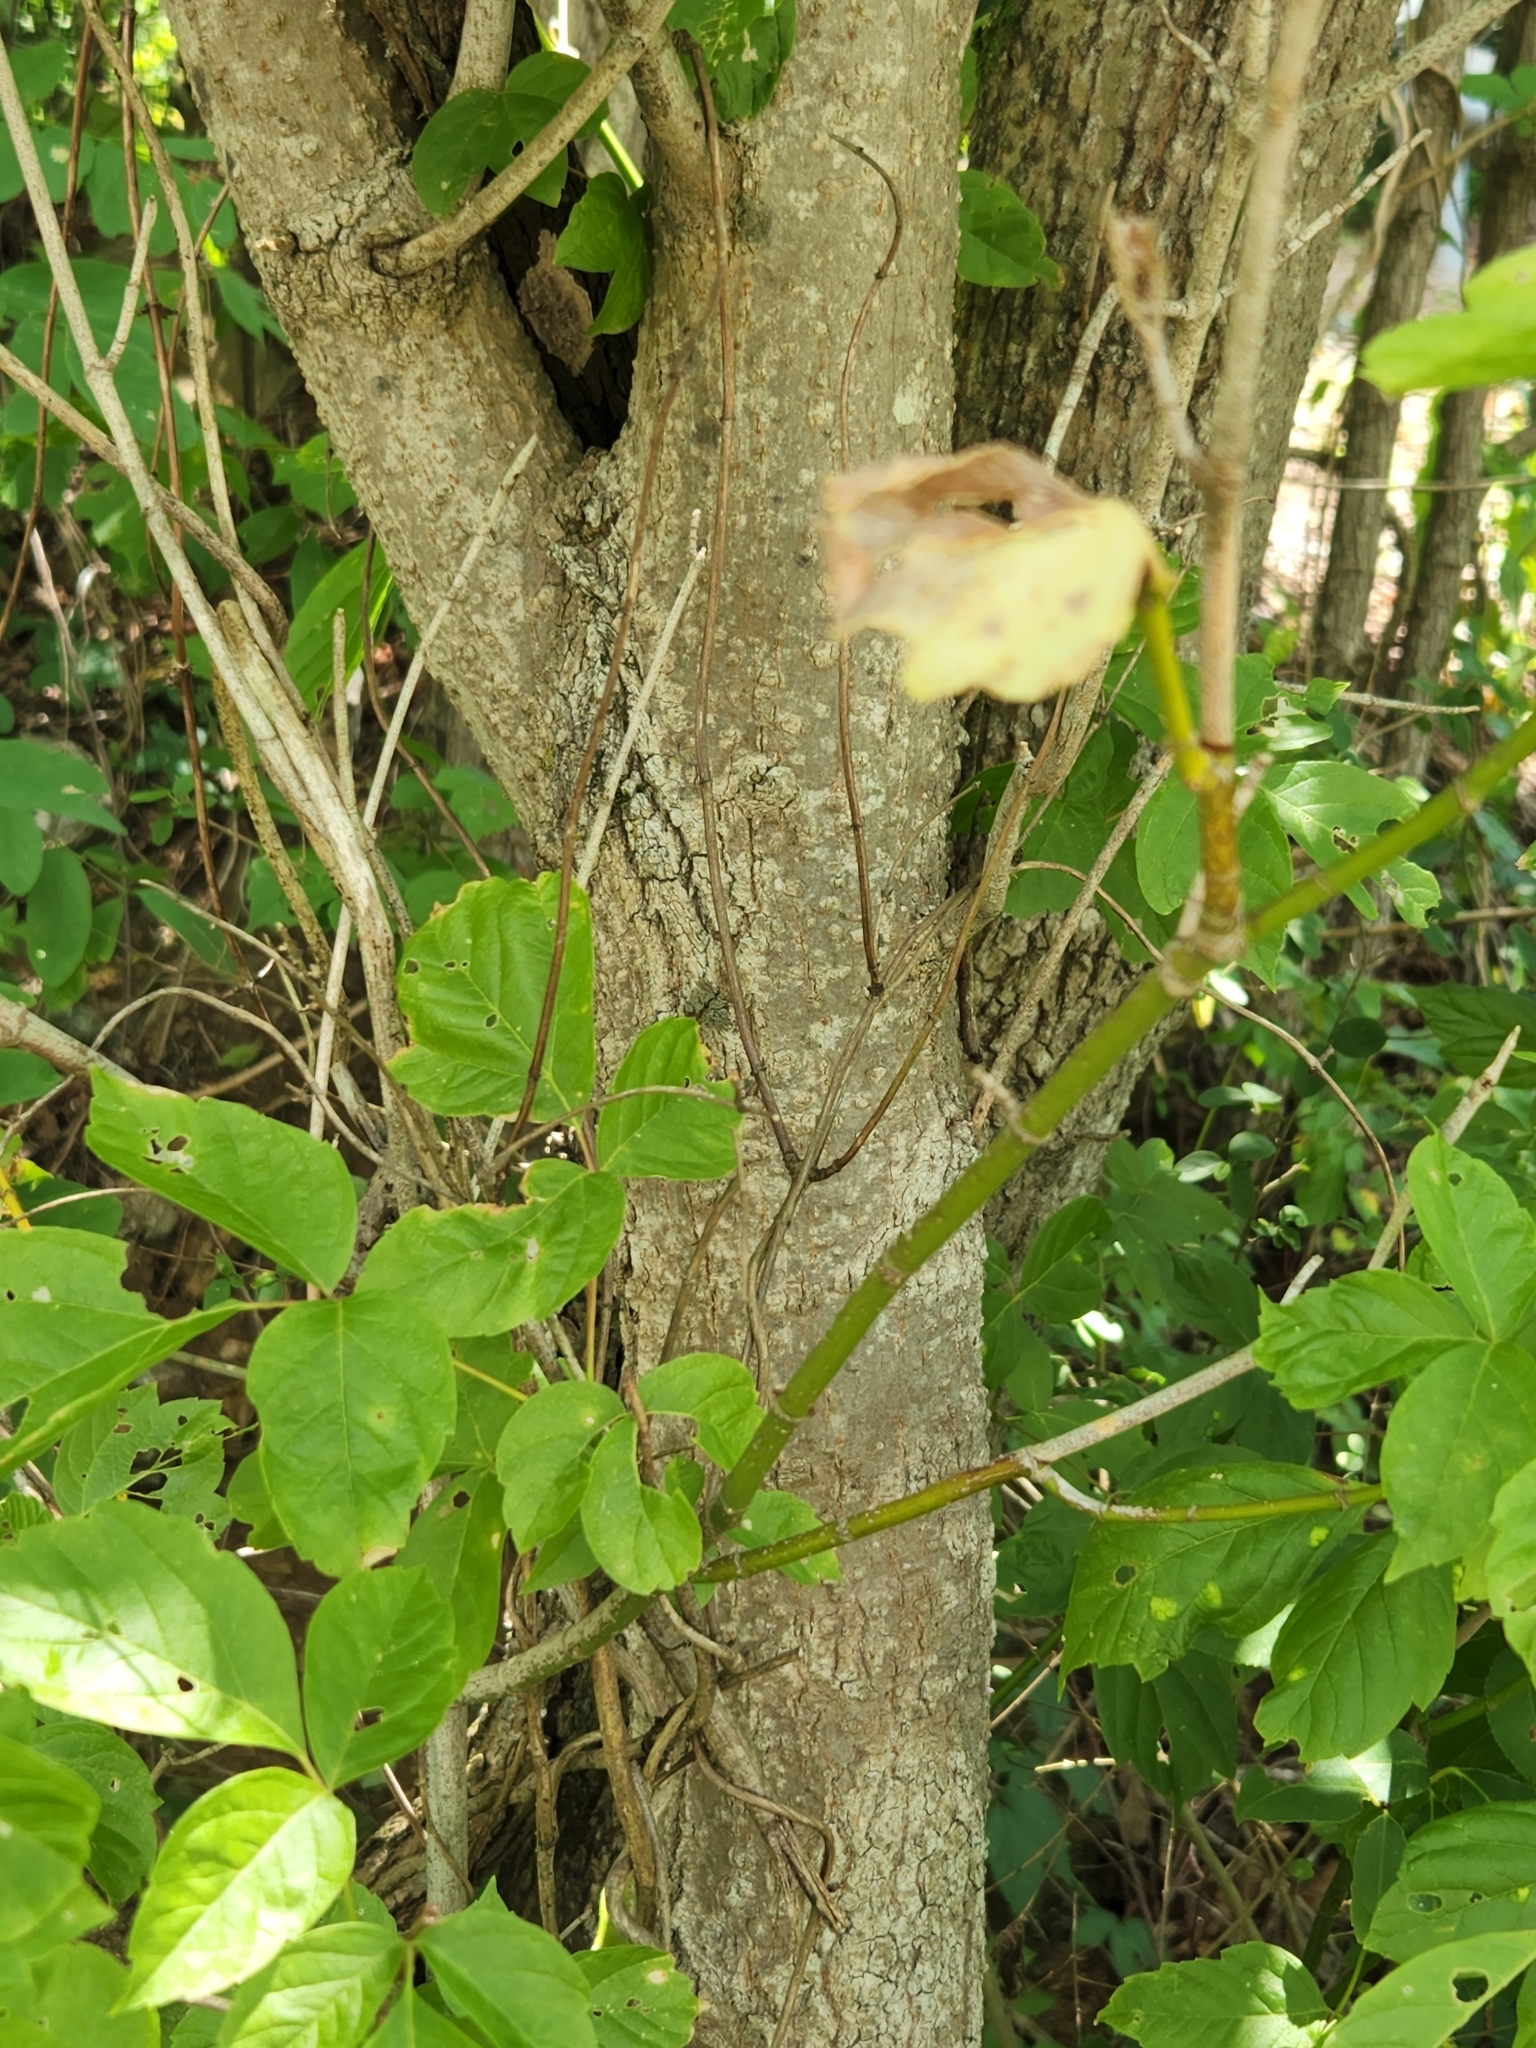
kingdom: Plantae
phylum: Tracheophyta
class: Magnoliopsida
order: Sapindales
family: Sapindaceae
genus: Acer
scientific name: Acer negundo
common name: Ashleaf maple
